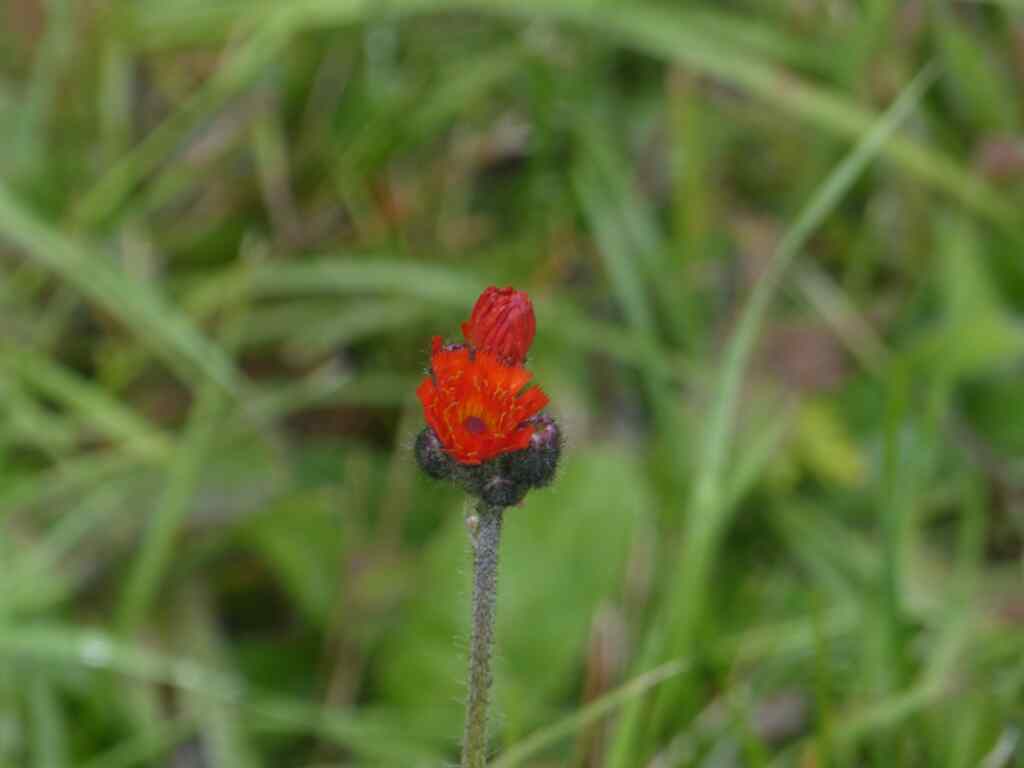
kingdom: Plantae
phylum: Tracheophyta
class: Magnoliopsida
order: Asterales
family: Asteraceae
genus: Pilosella
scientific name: Pilosella aurantiaca
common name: Fox-and-cubs
